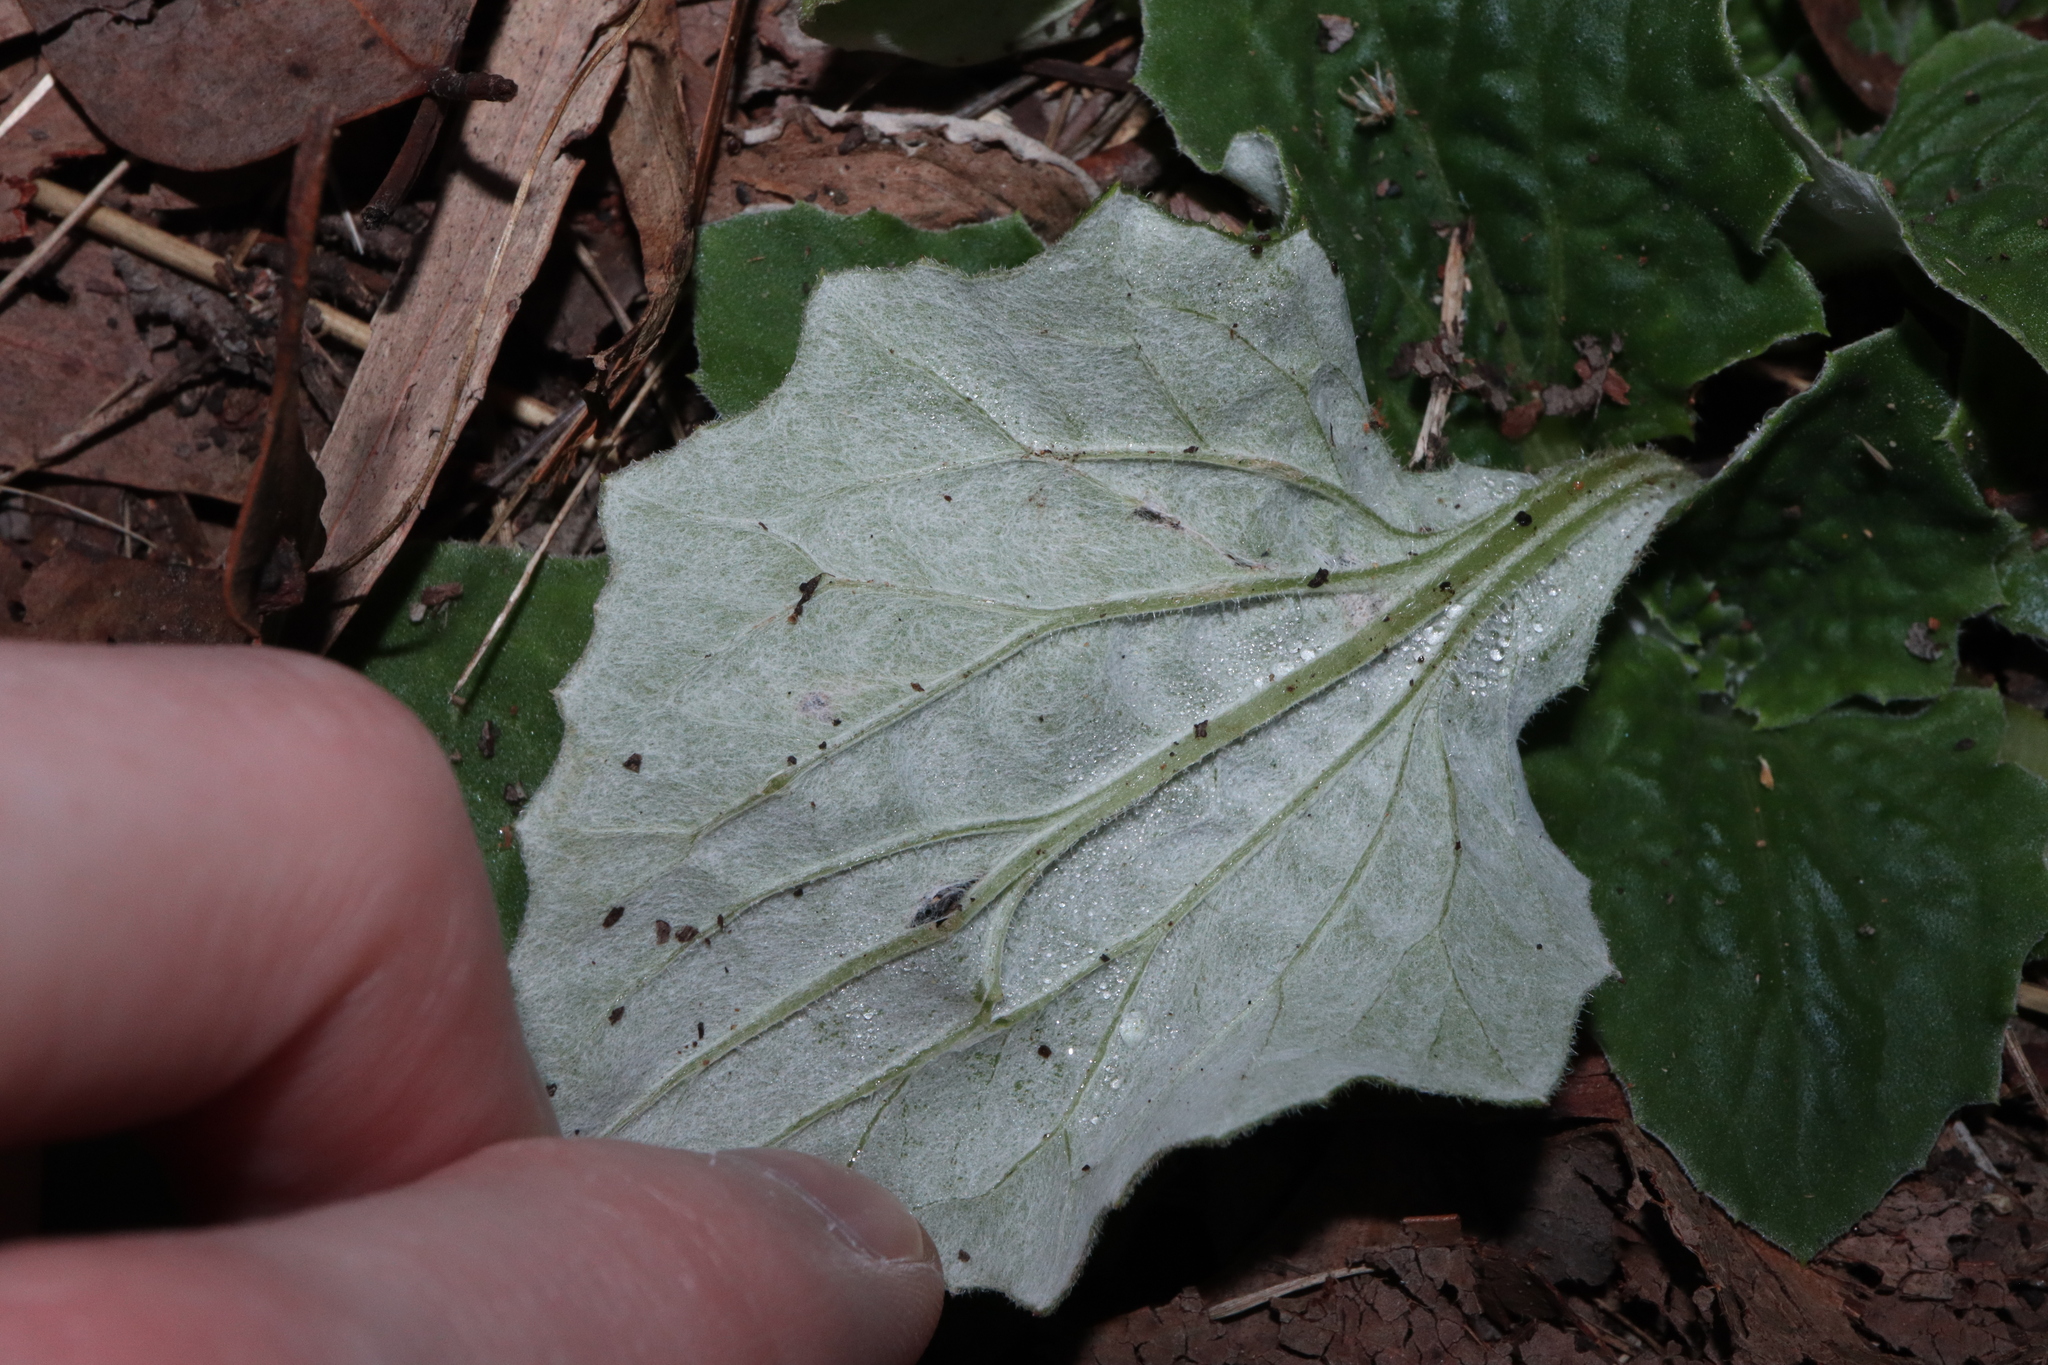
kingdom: Plantae
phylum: Tracheophyta
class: Magnoliopsida
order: Asterales
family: Asteraceae
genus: Cymbonotus
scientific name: Cymbonotus
